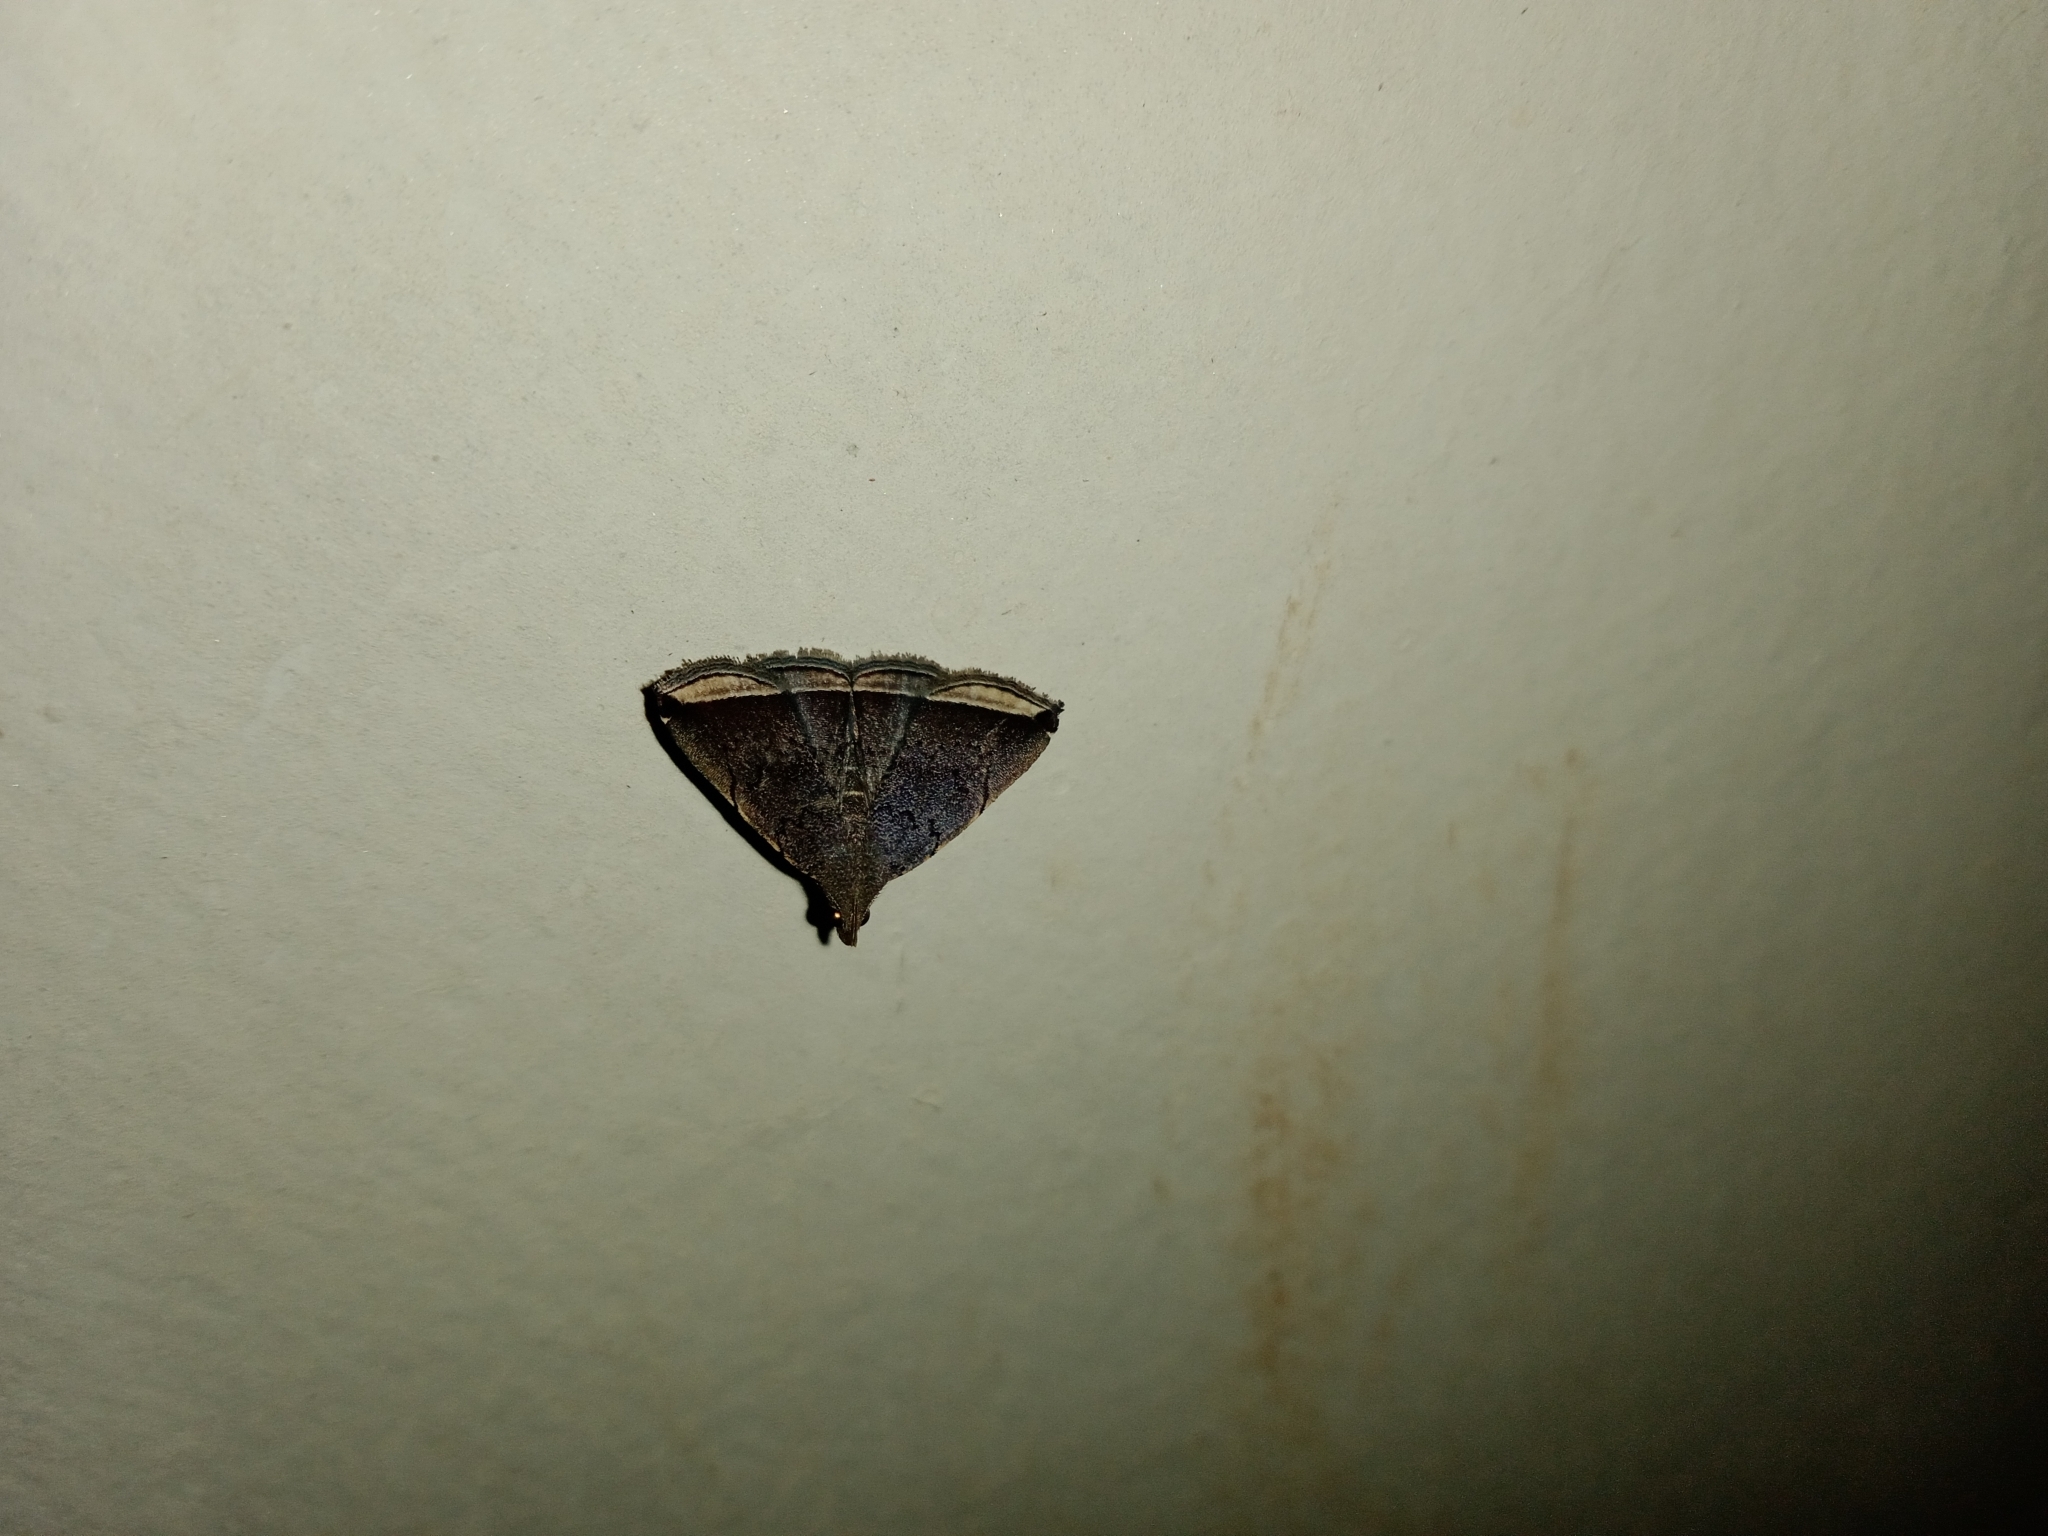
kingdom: Animalia
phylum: Arthropoda
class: Insecta
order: Lepidoptera
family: Erebidae
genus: Lysimelia
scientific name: Lysimelia alstoni
